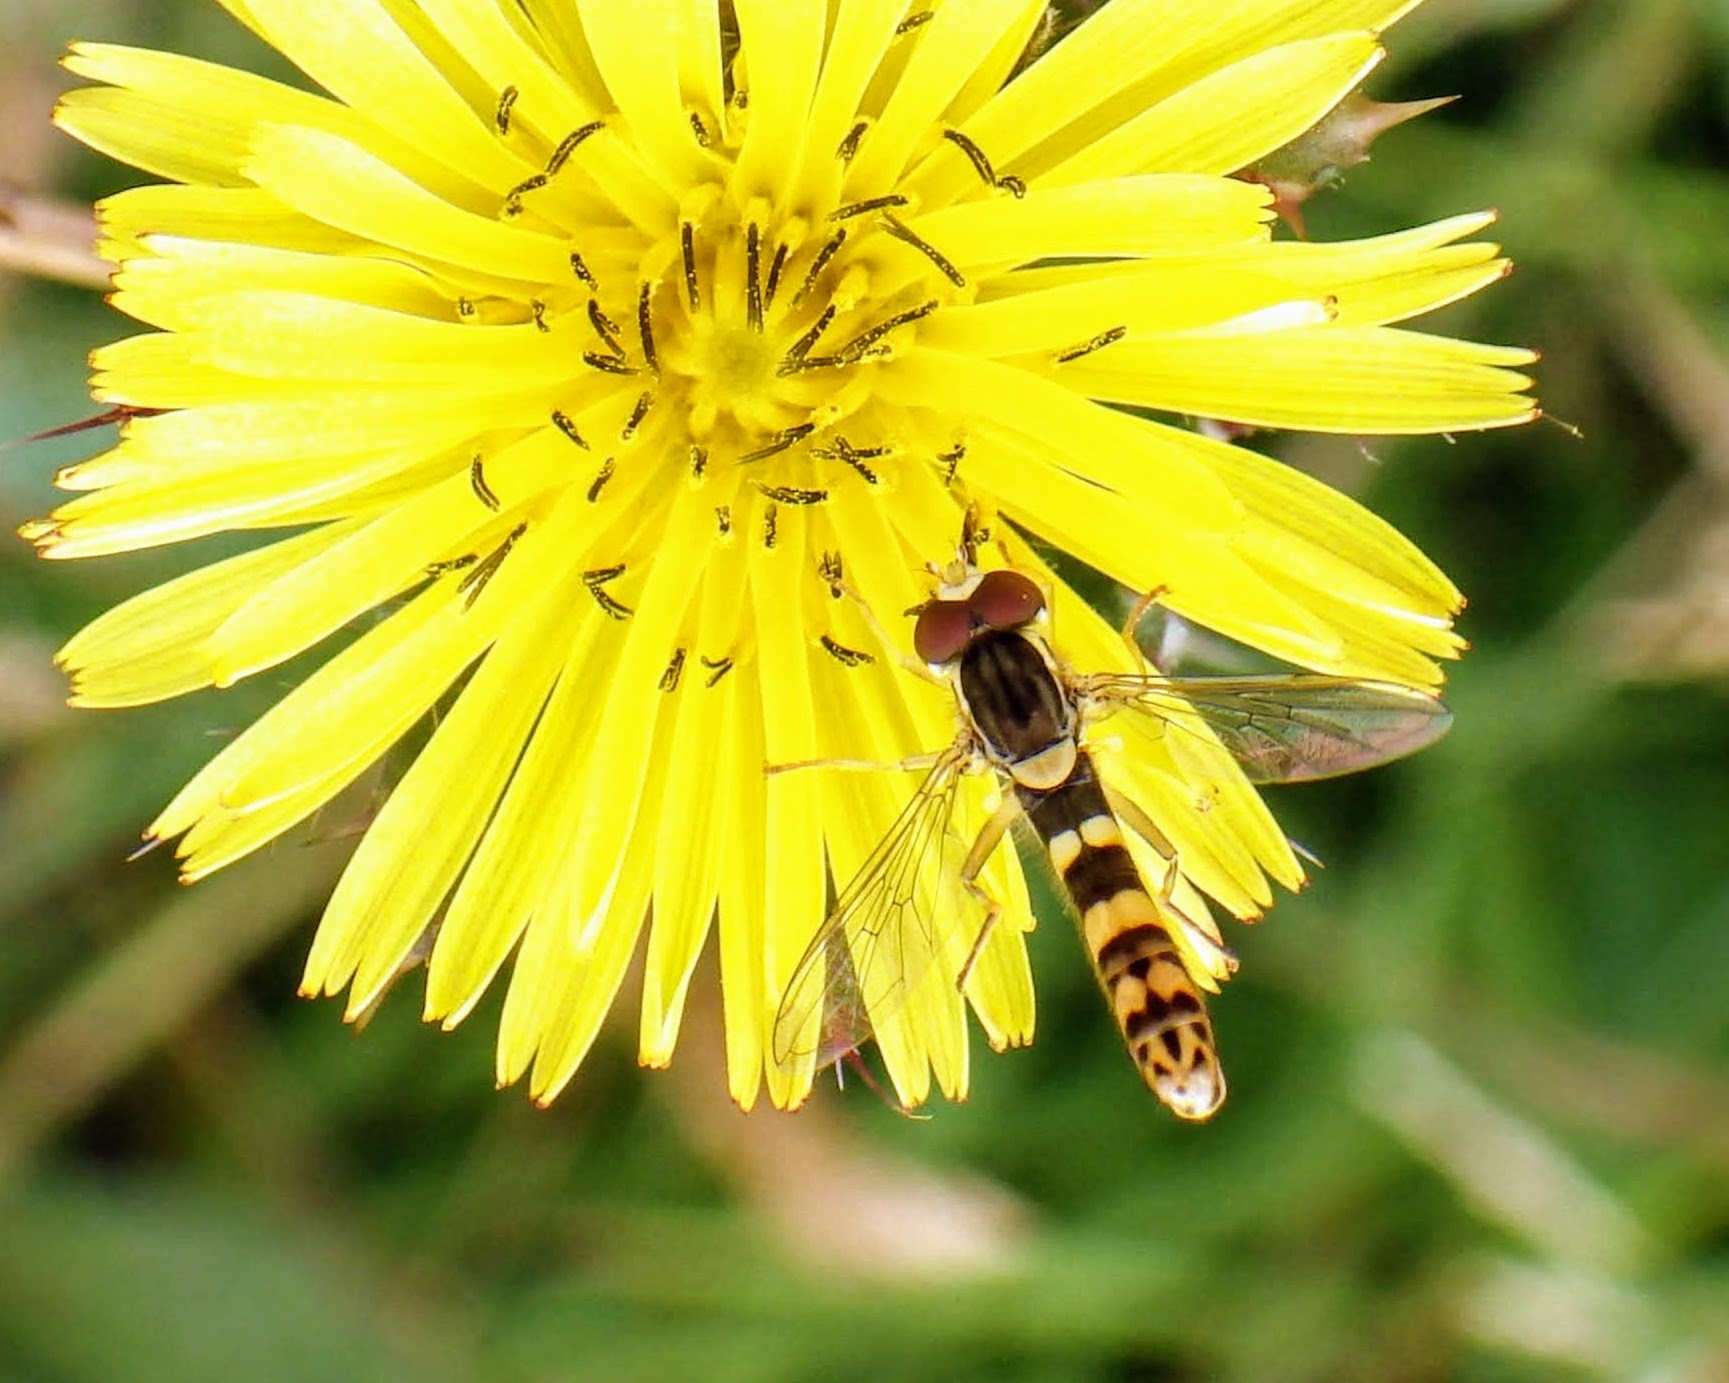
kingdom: Animalia
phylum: Arthropoda
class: Insecta
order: Diptera
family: Syrphidae
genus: Sphaerophoria
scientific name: Sphaerophoria scripta
